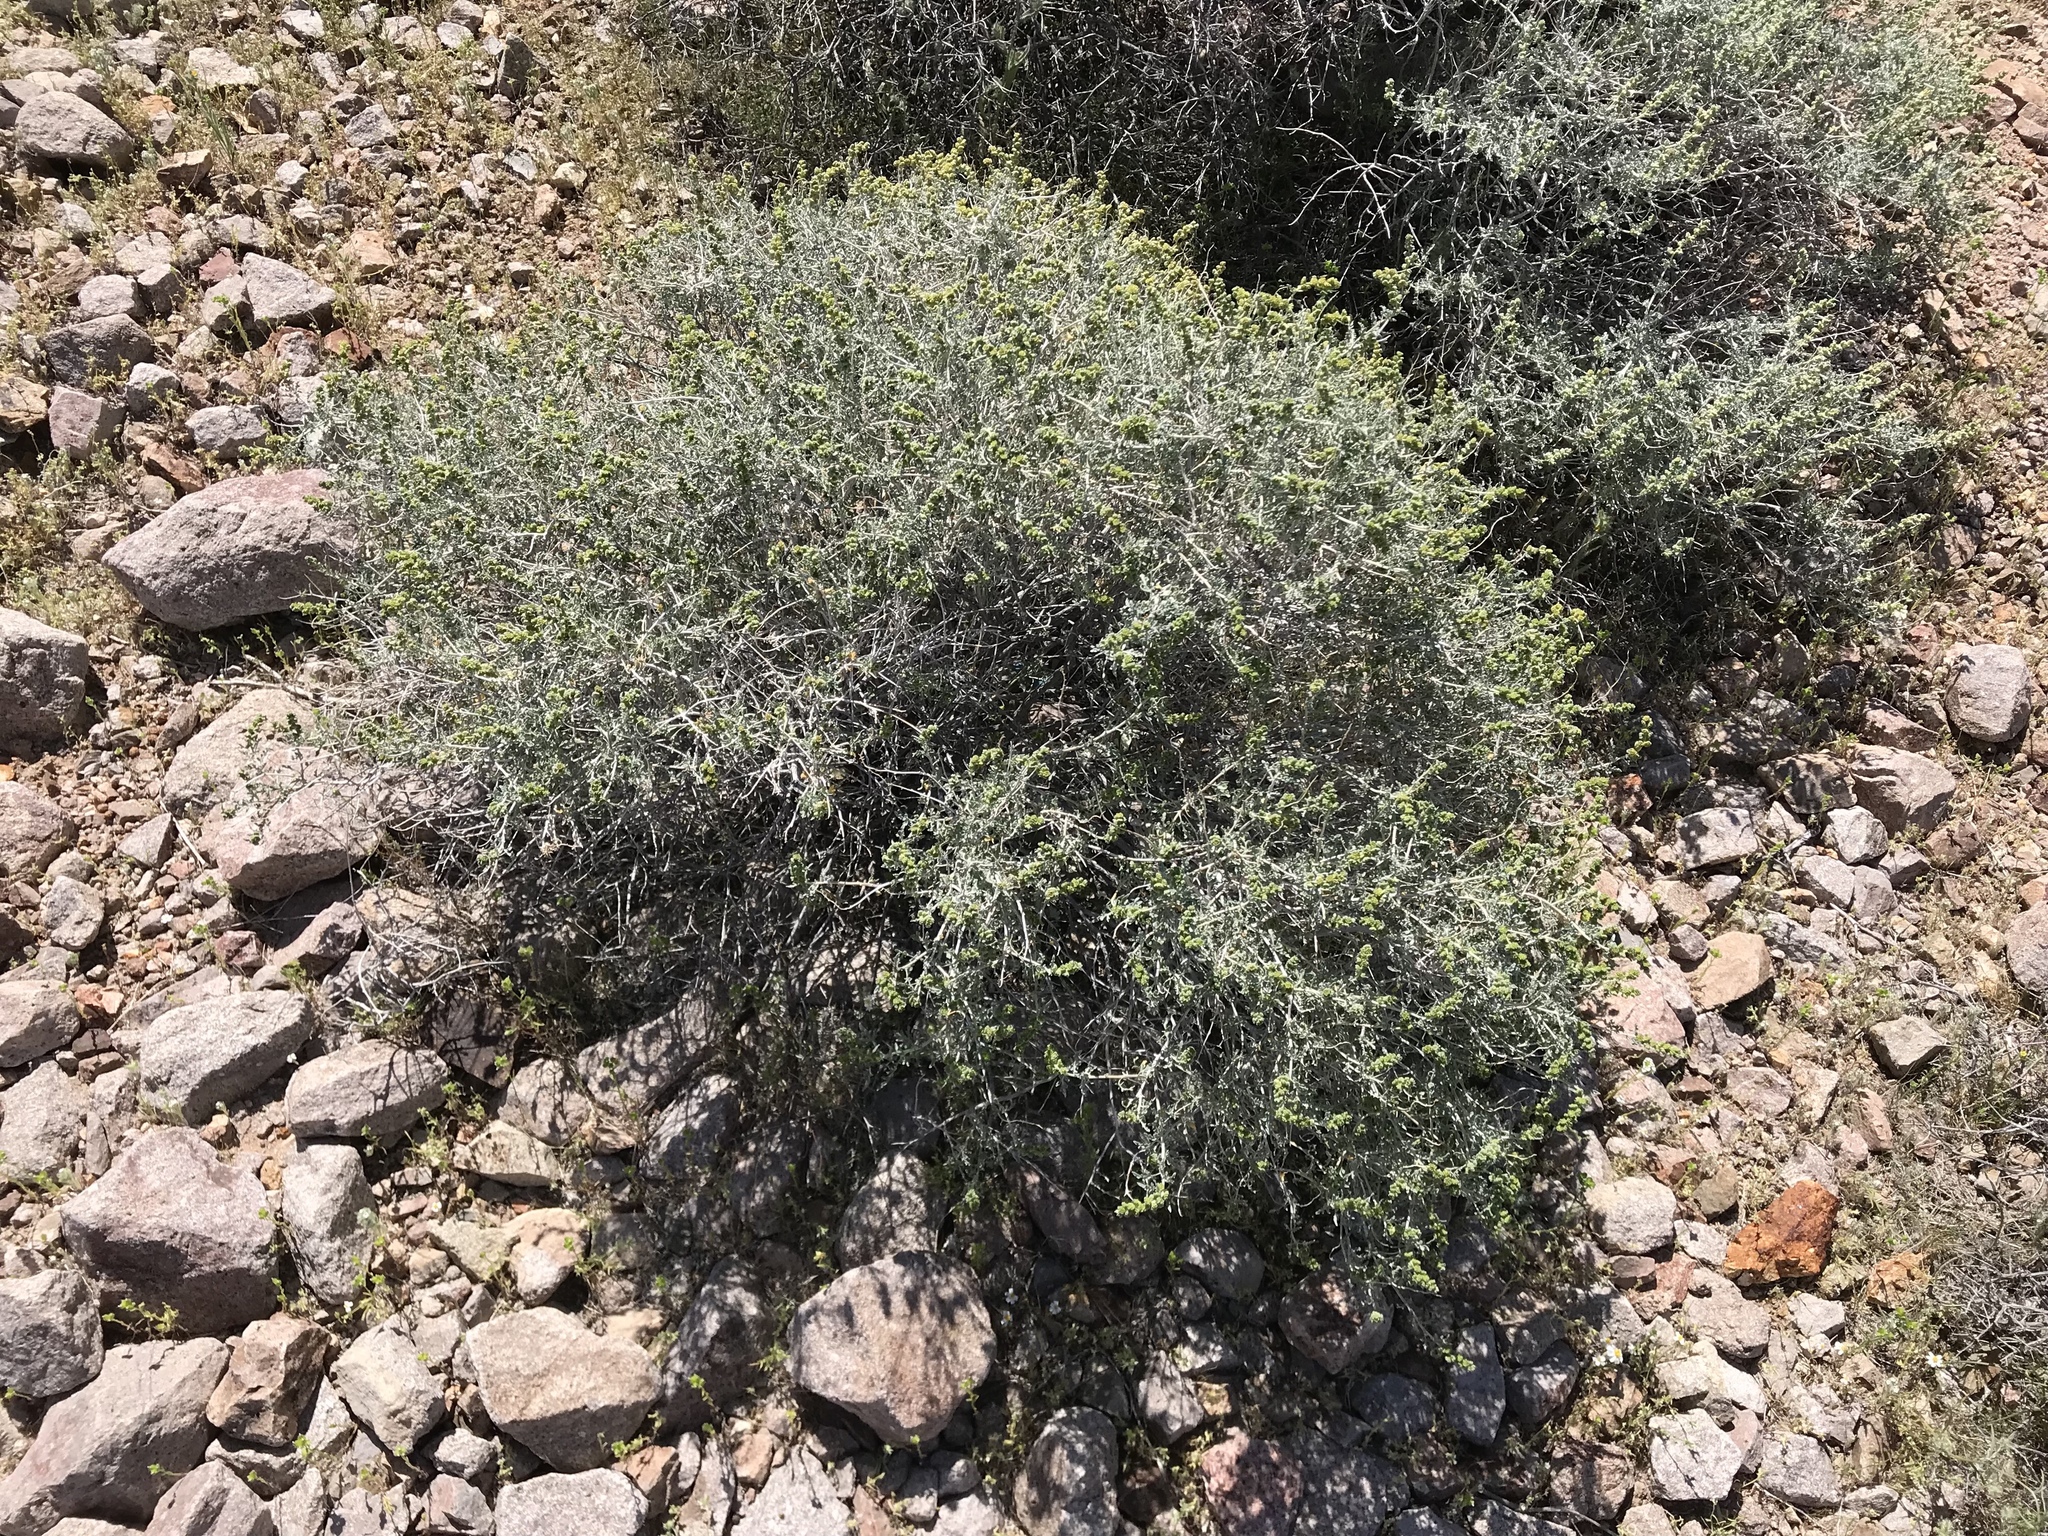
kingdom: Plantae
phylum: Tracheophyta
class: Magnoliopsida
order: Asterales
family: Asteraceae
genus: Ambrosia
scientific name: Ambrosia dumosa
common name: Bur-sage
